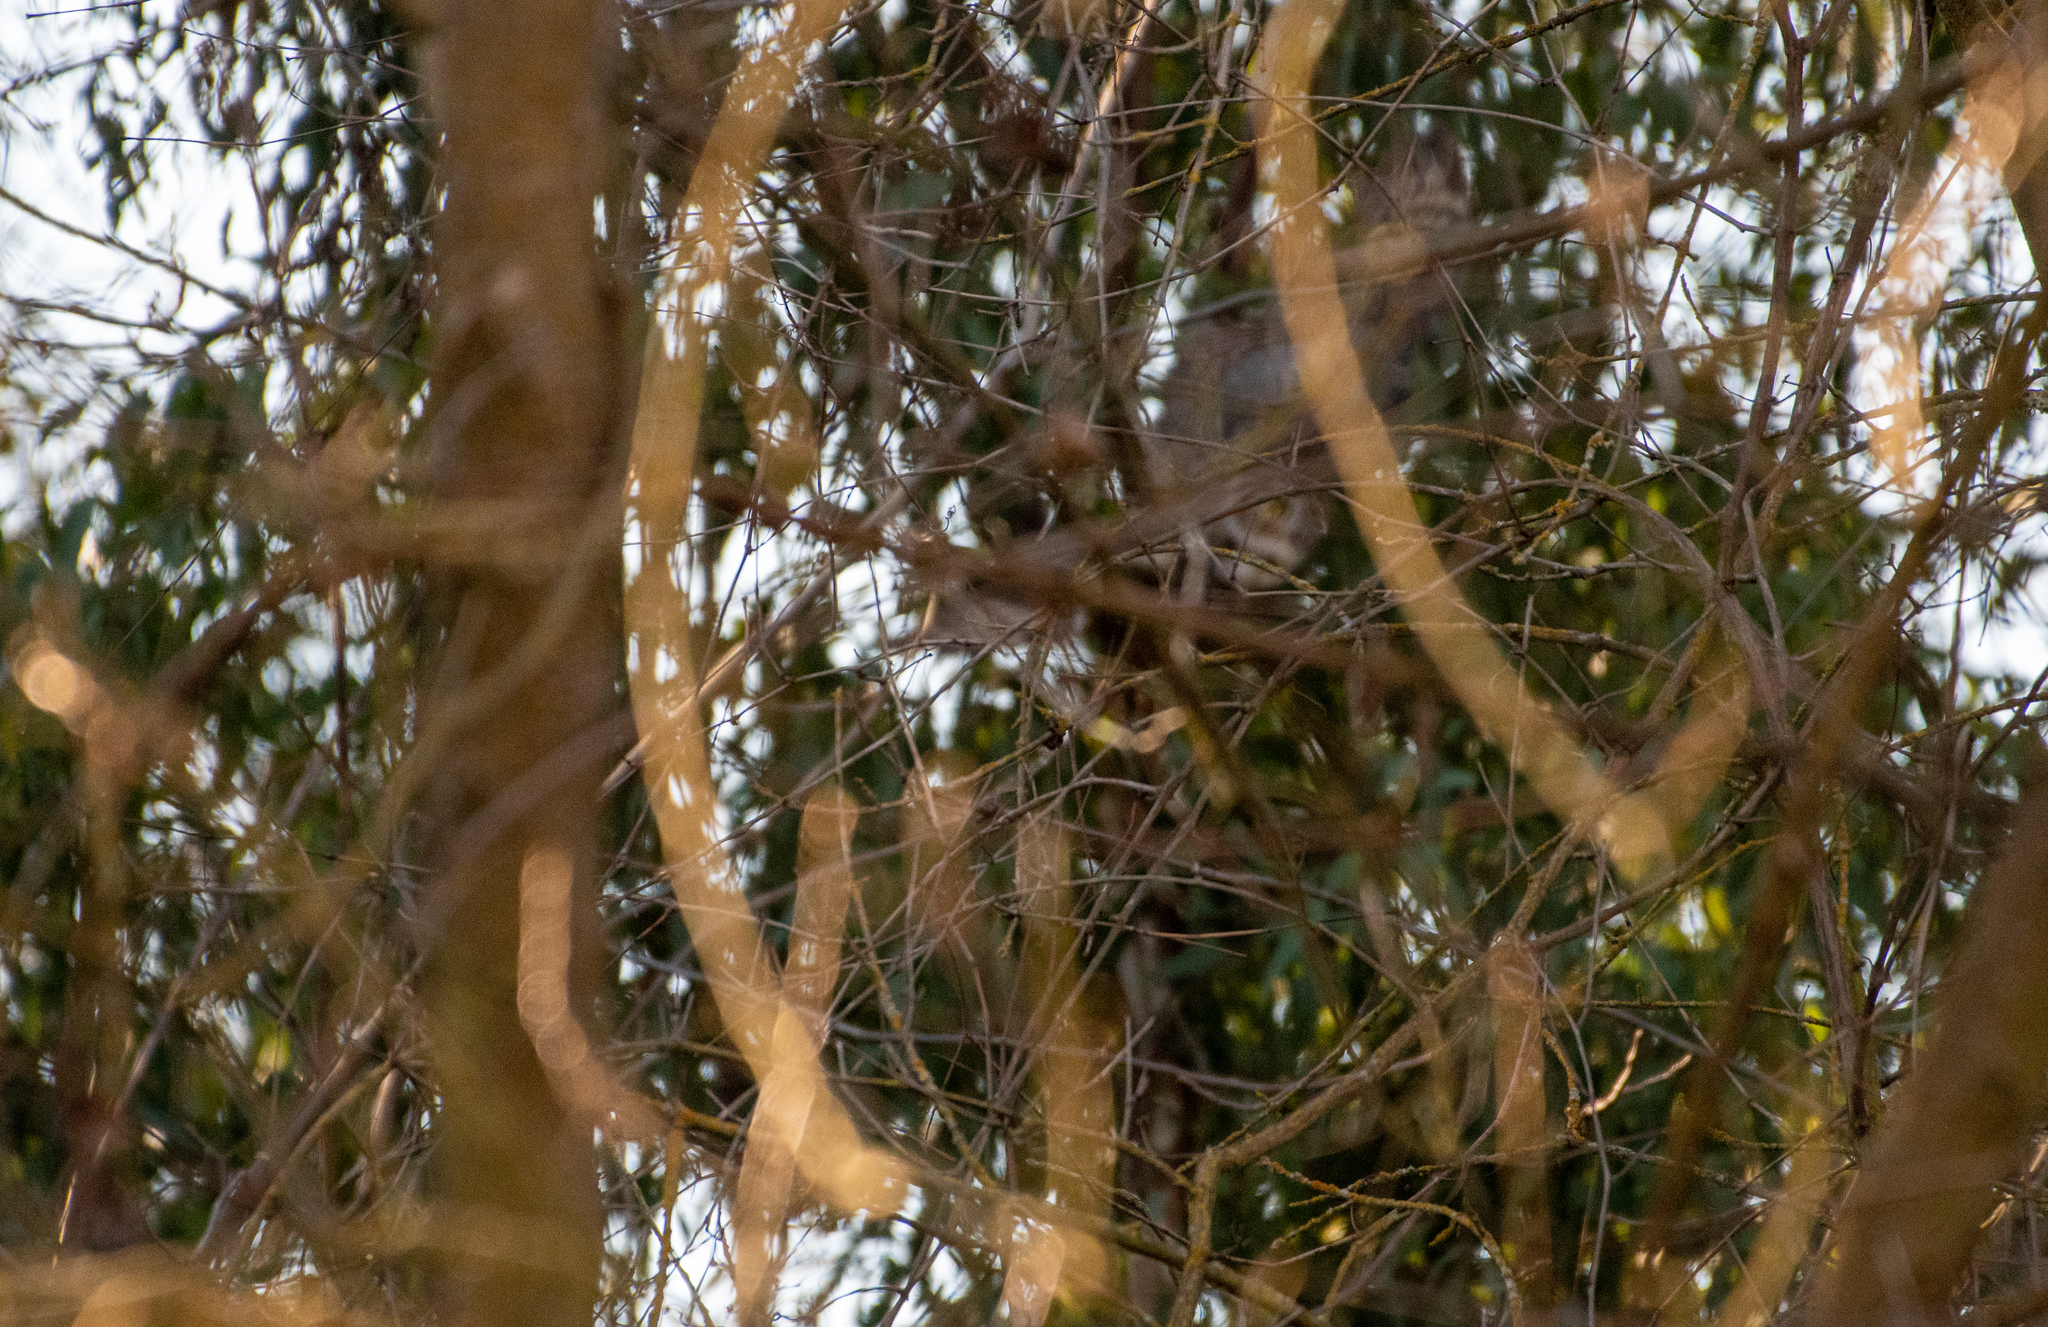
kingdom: Animalia
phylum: Chordata
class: Aves
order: Strigiformes
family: Strigidae
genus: Bubo
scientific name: Bubo virginianus
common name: Great horned owl
